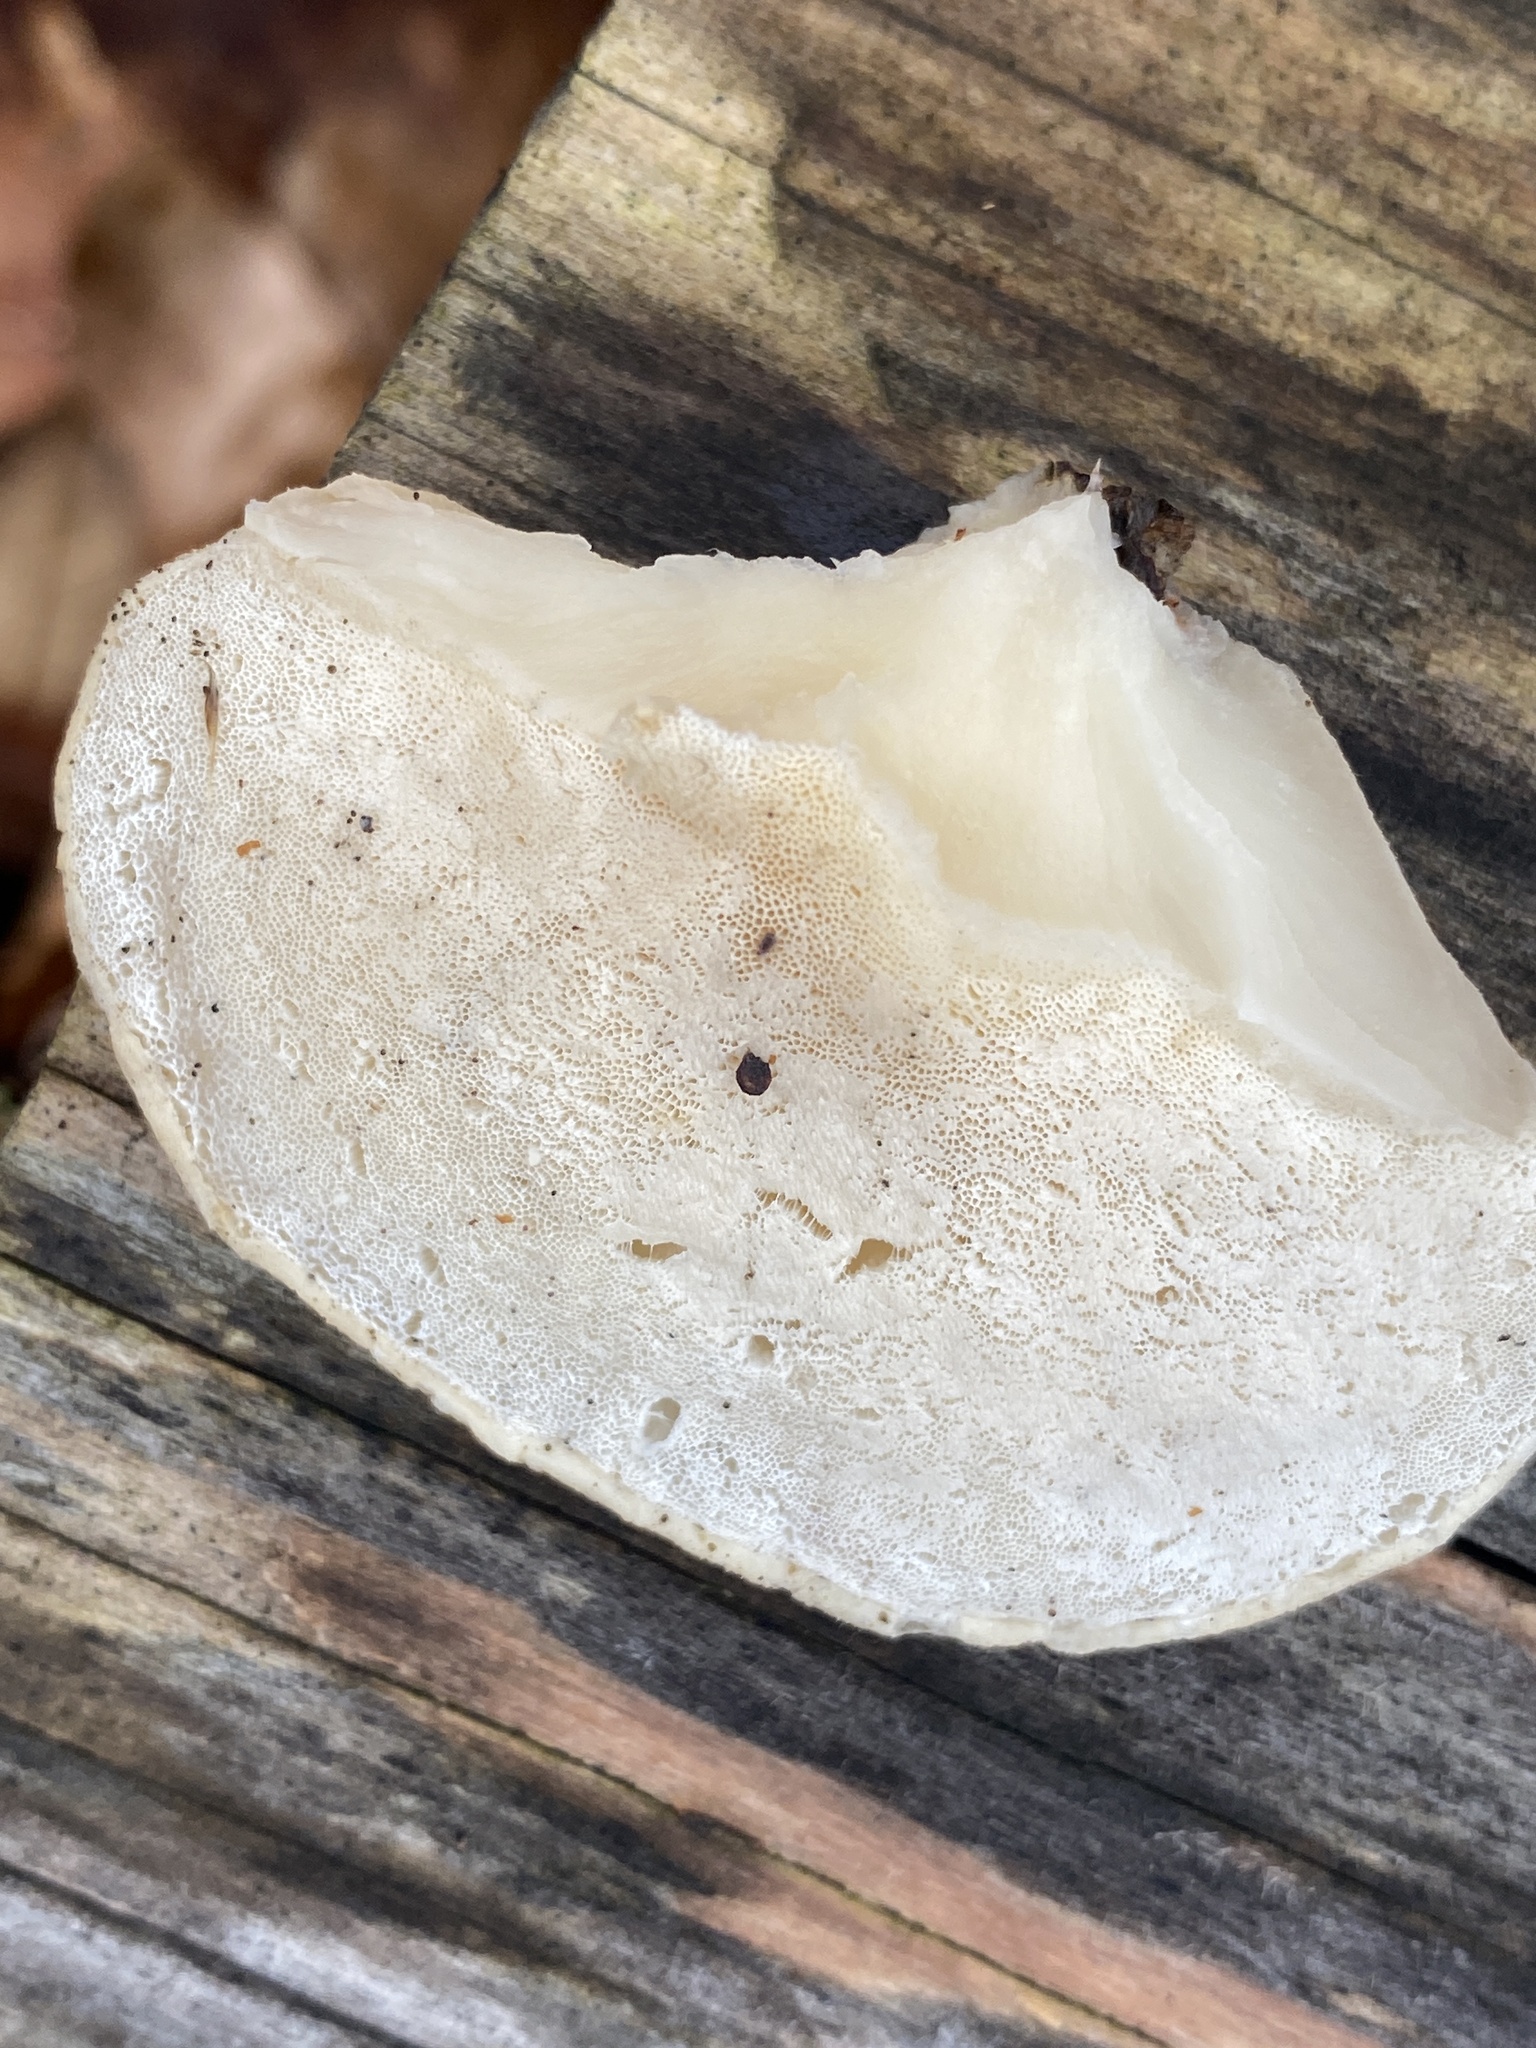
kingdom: Fungi
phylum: Basidiomycota
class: Agaricomycetes
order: Polyporales
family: Incrustoporiaceae
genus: Tyromyces
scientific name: Tyromyces chioneus
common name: White cheese polypore
